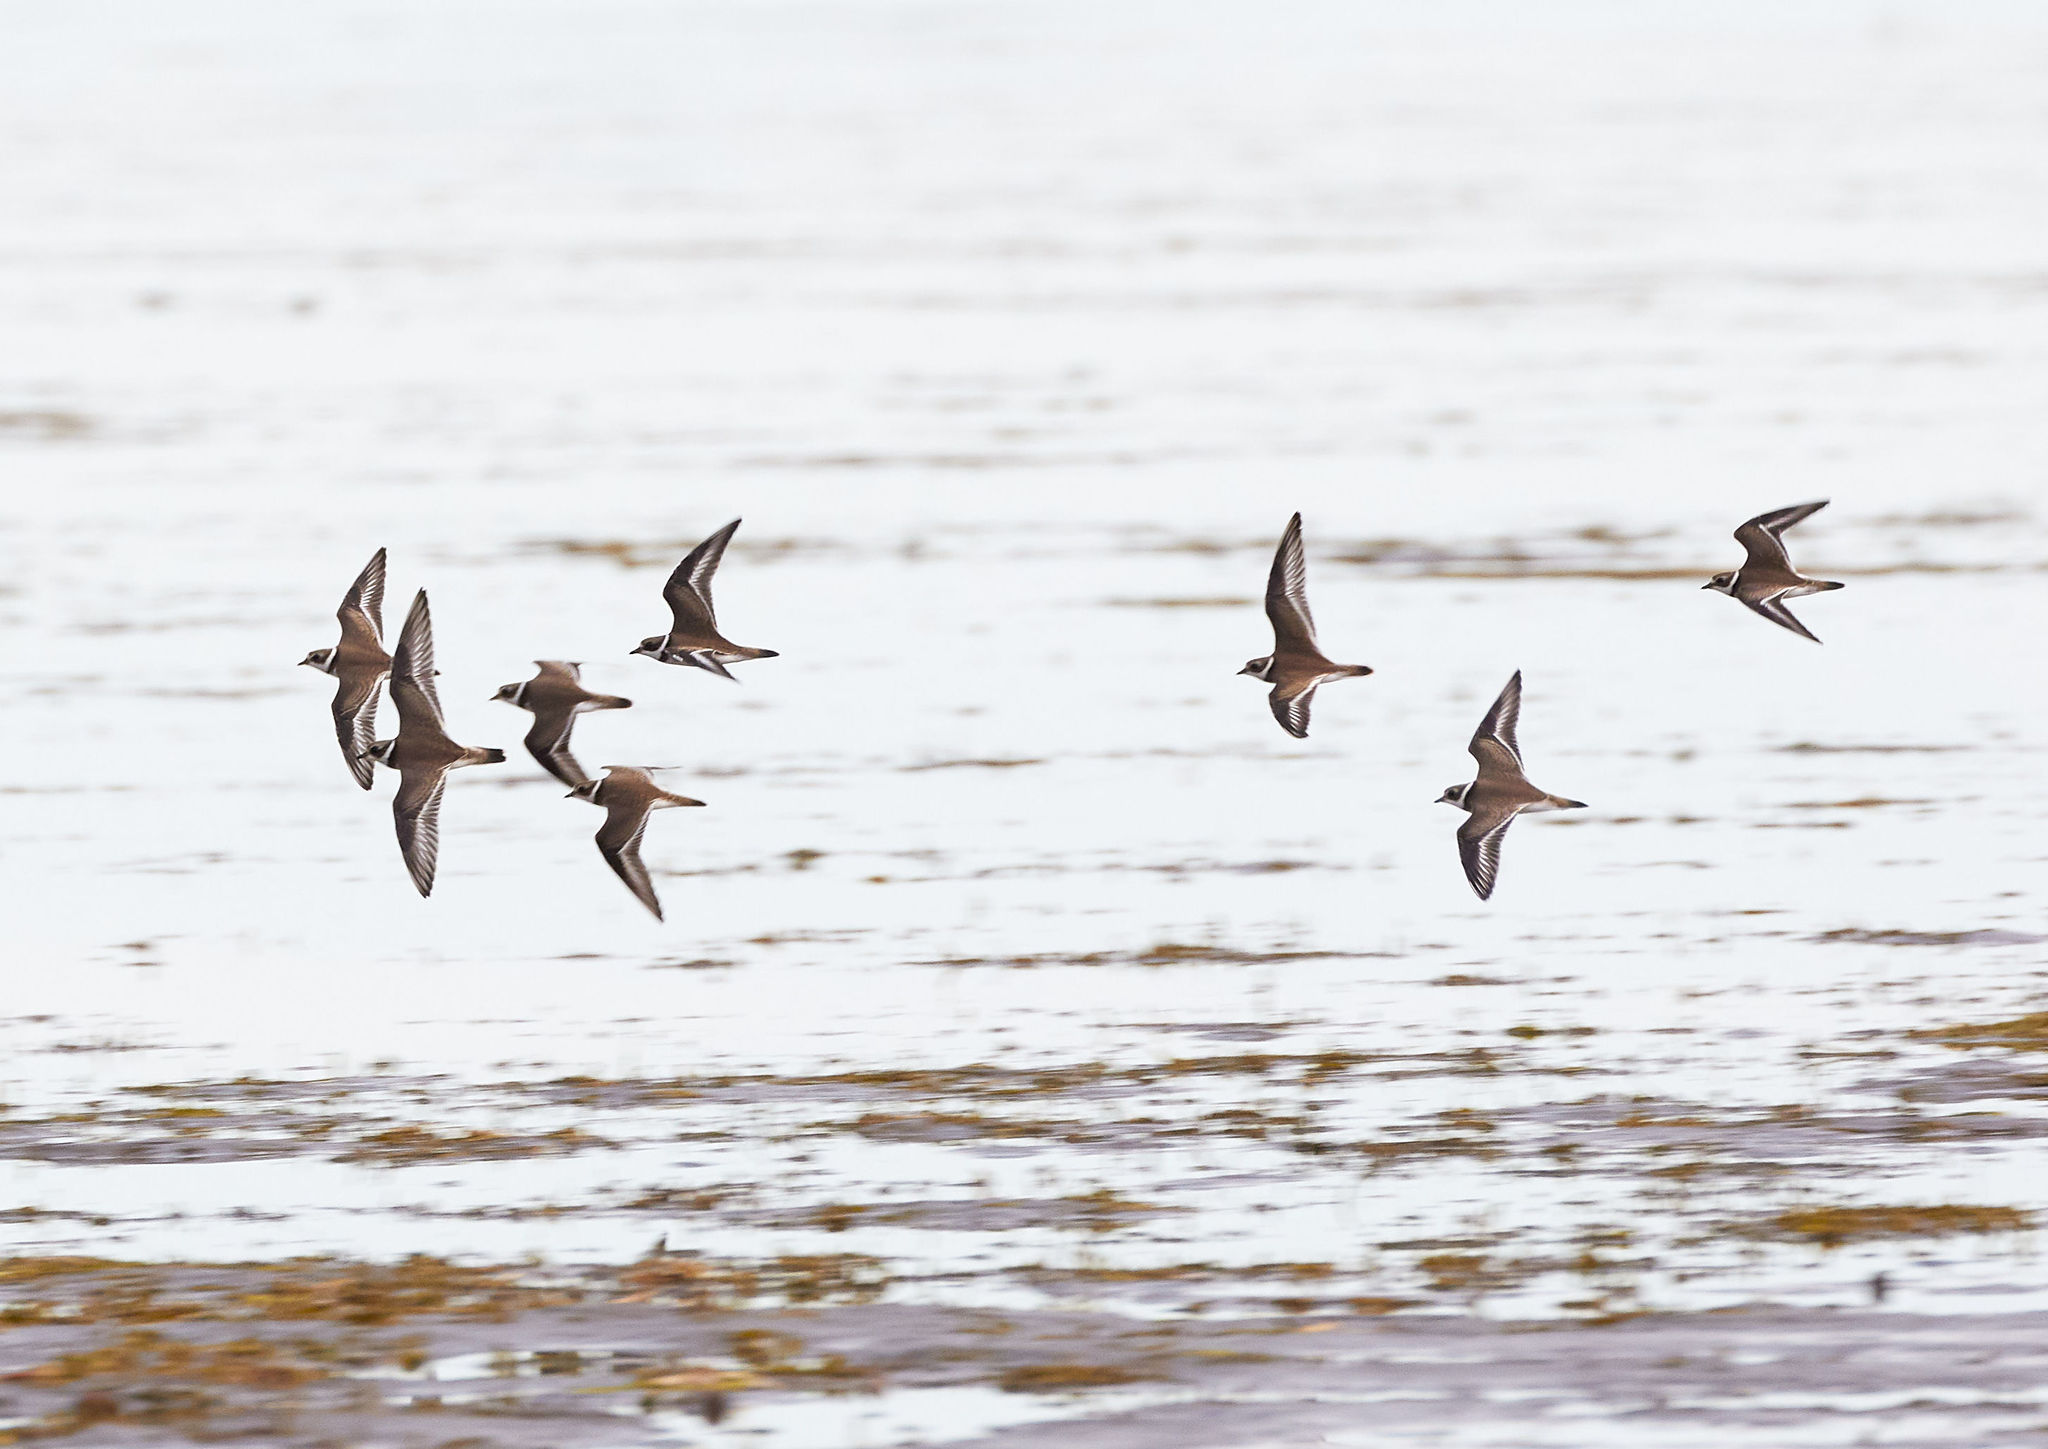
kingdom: Animalia
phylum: Chordata
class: Aves
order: Charadriiformes
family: Charadriidae
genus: Charadrius
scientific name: Charadrius semipalmatus
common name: Semipalmated plover
